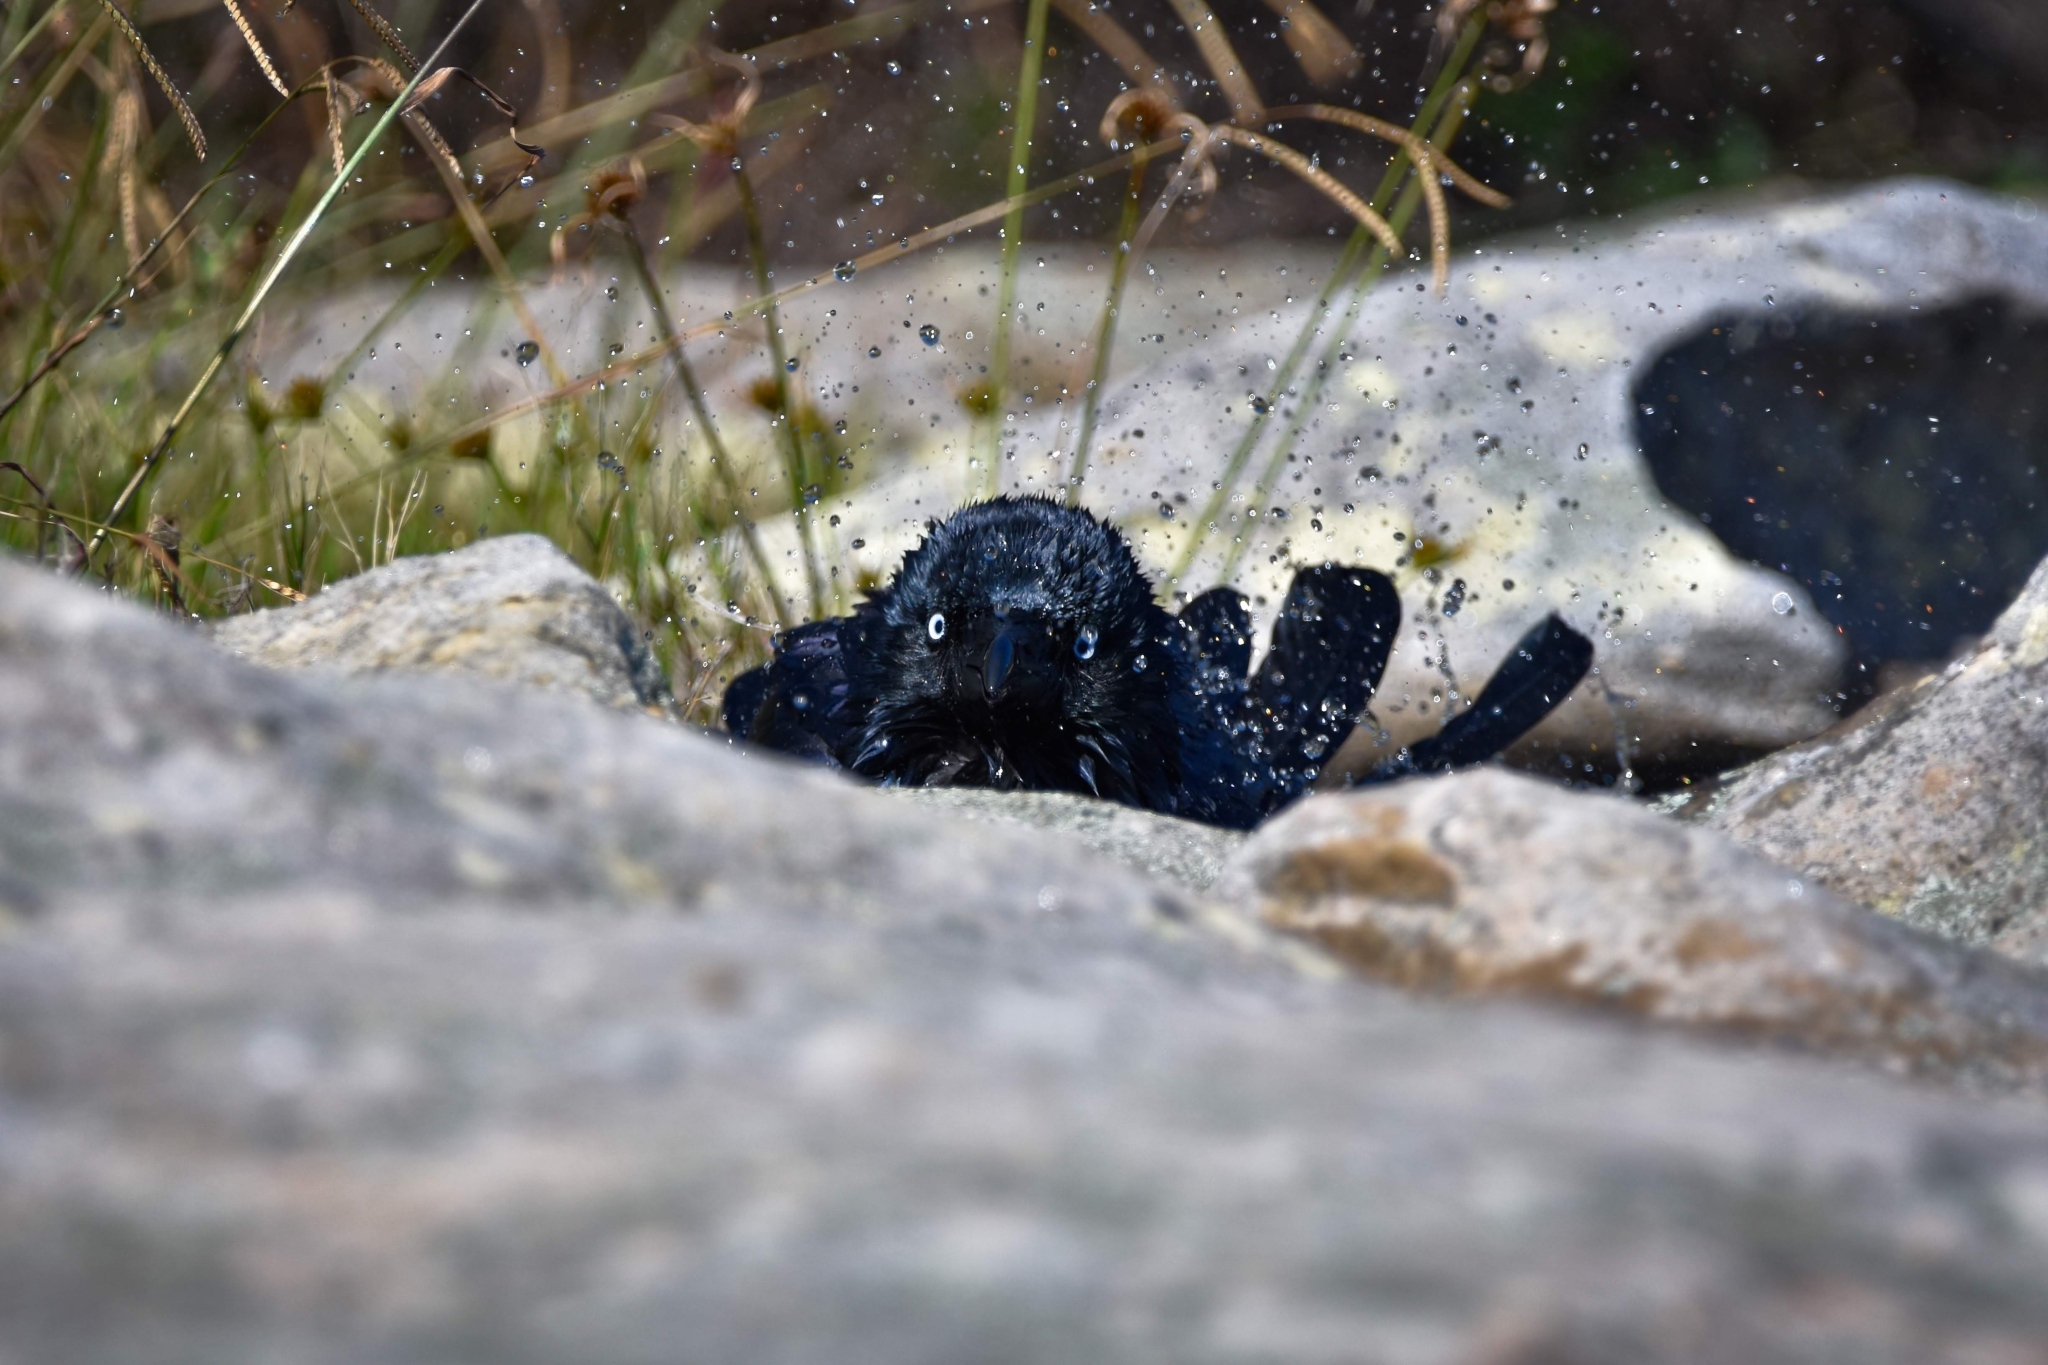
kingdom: Animalia
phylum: Chordata
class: Aves
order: Passeriformes
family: Corvidae
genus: Corvus
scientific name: Corvus coronoides
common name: Australian raven
